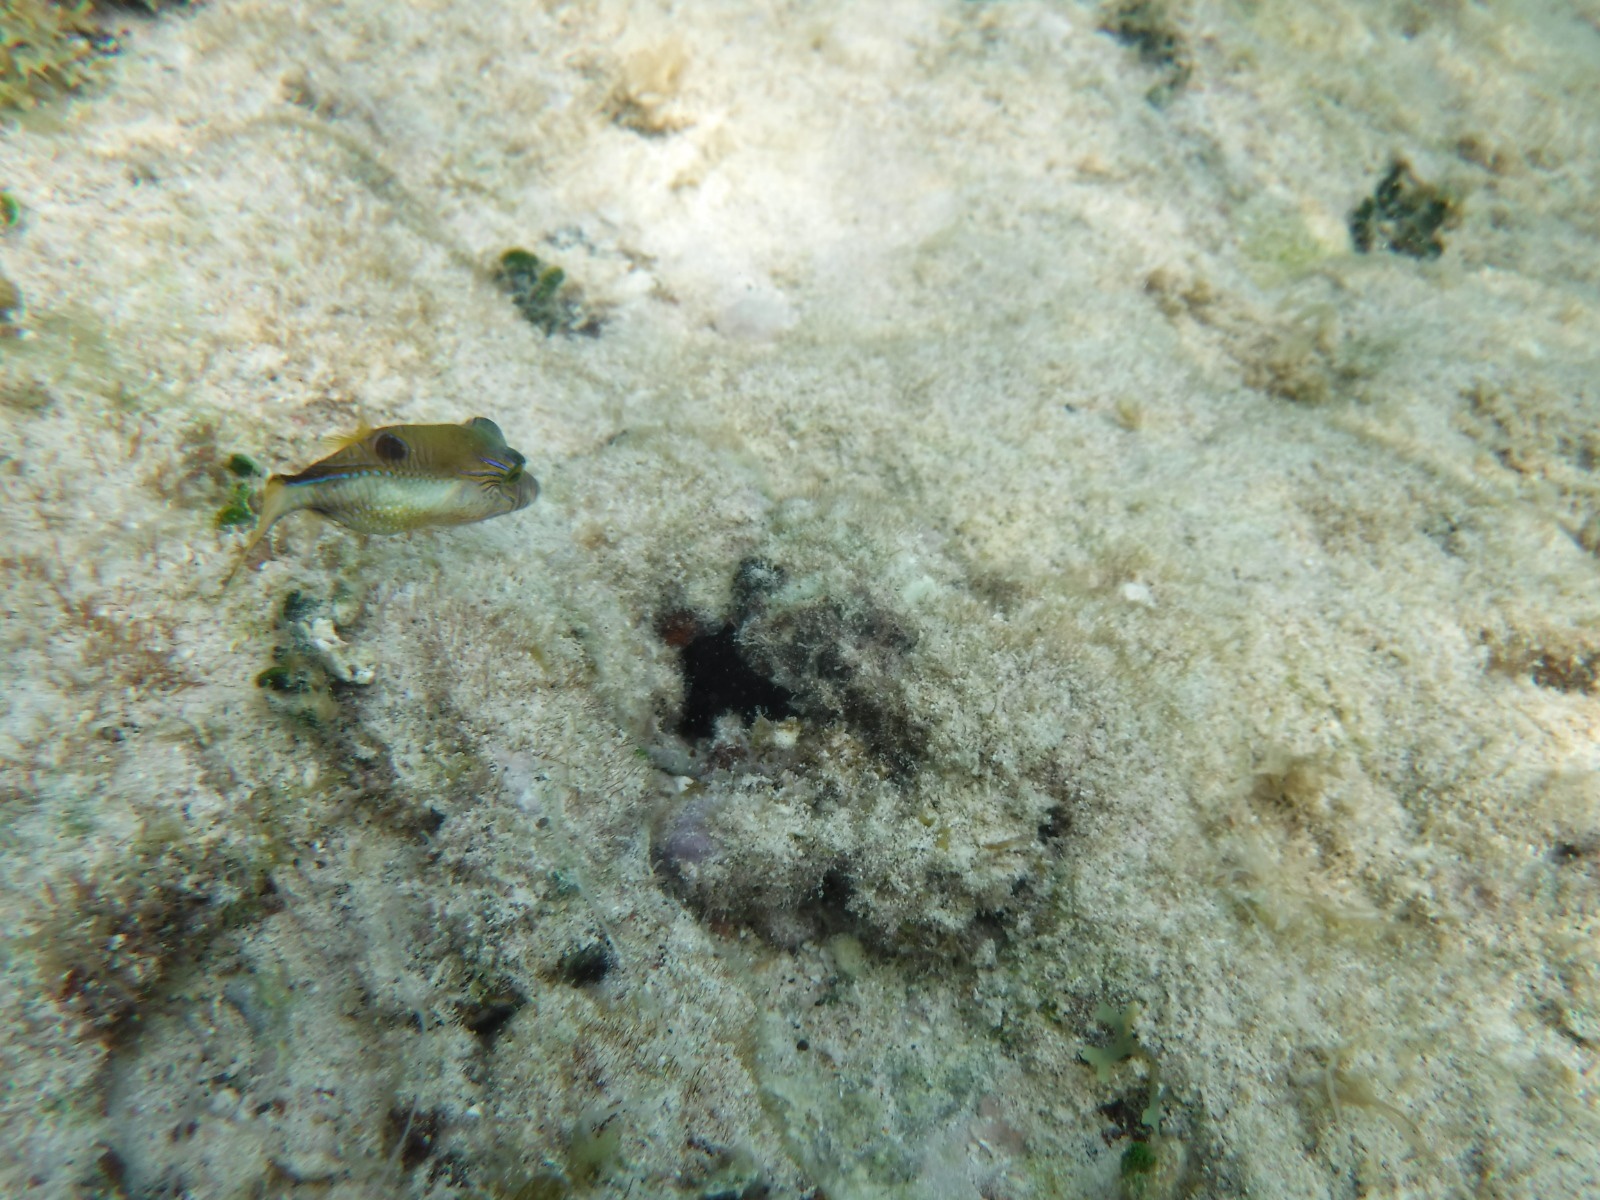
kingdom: Animalia
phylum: Chordata
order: Tetraodontiformes
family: Tetraodontidae
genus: Canthigaster
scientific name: Canthigaster rostrata
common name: Caribbean sharpnose-puffer
